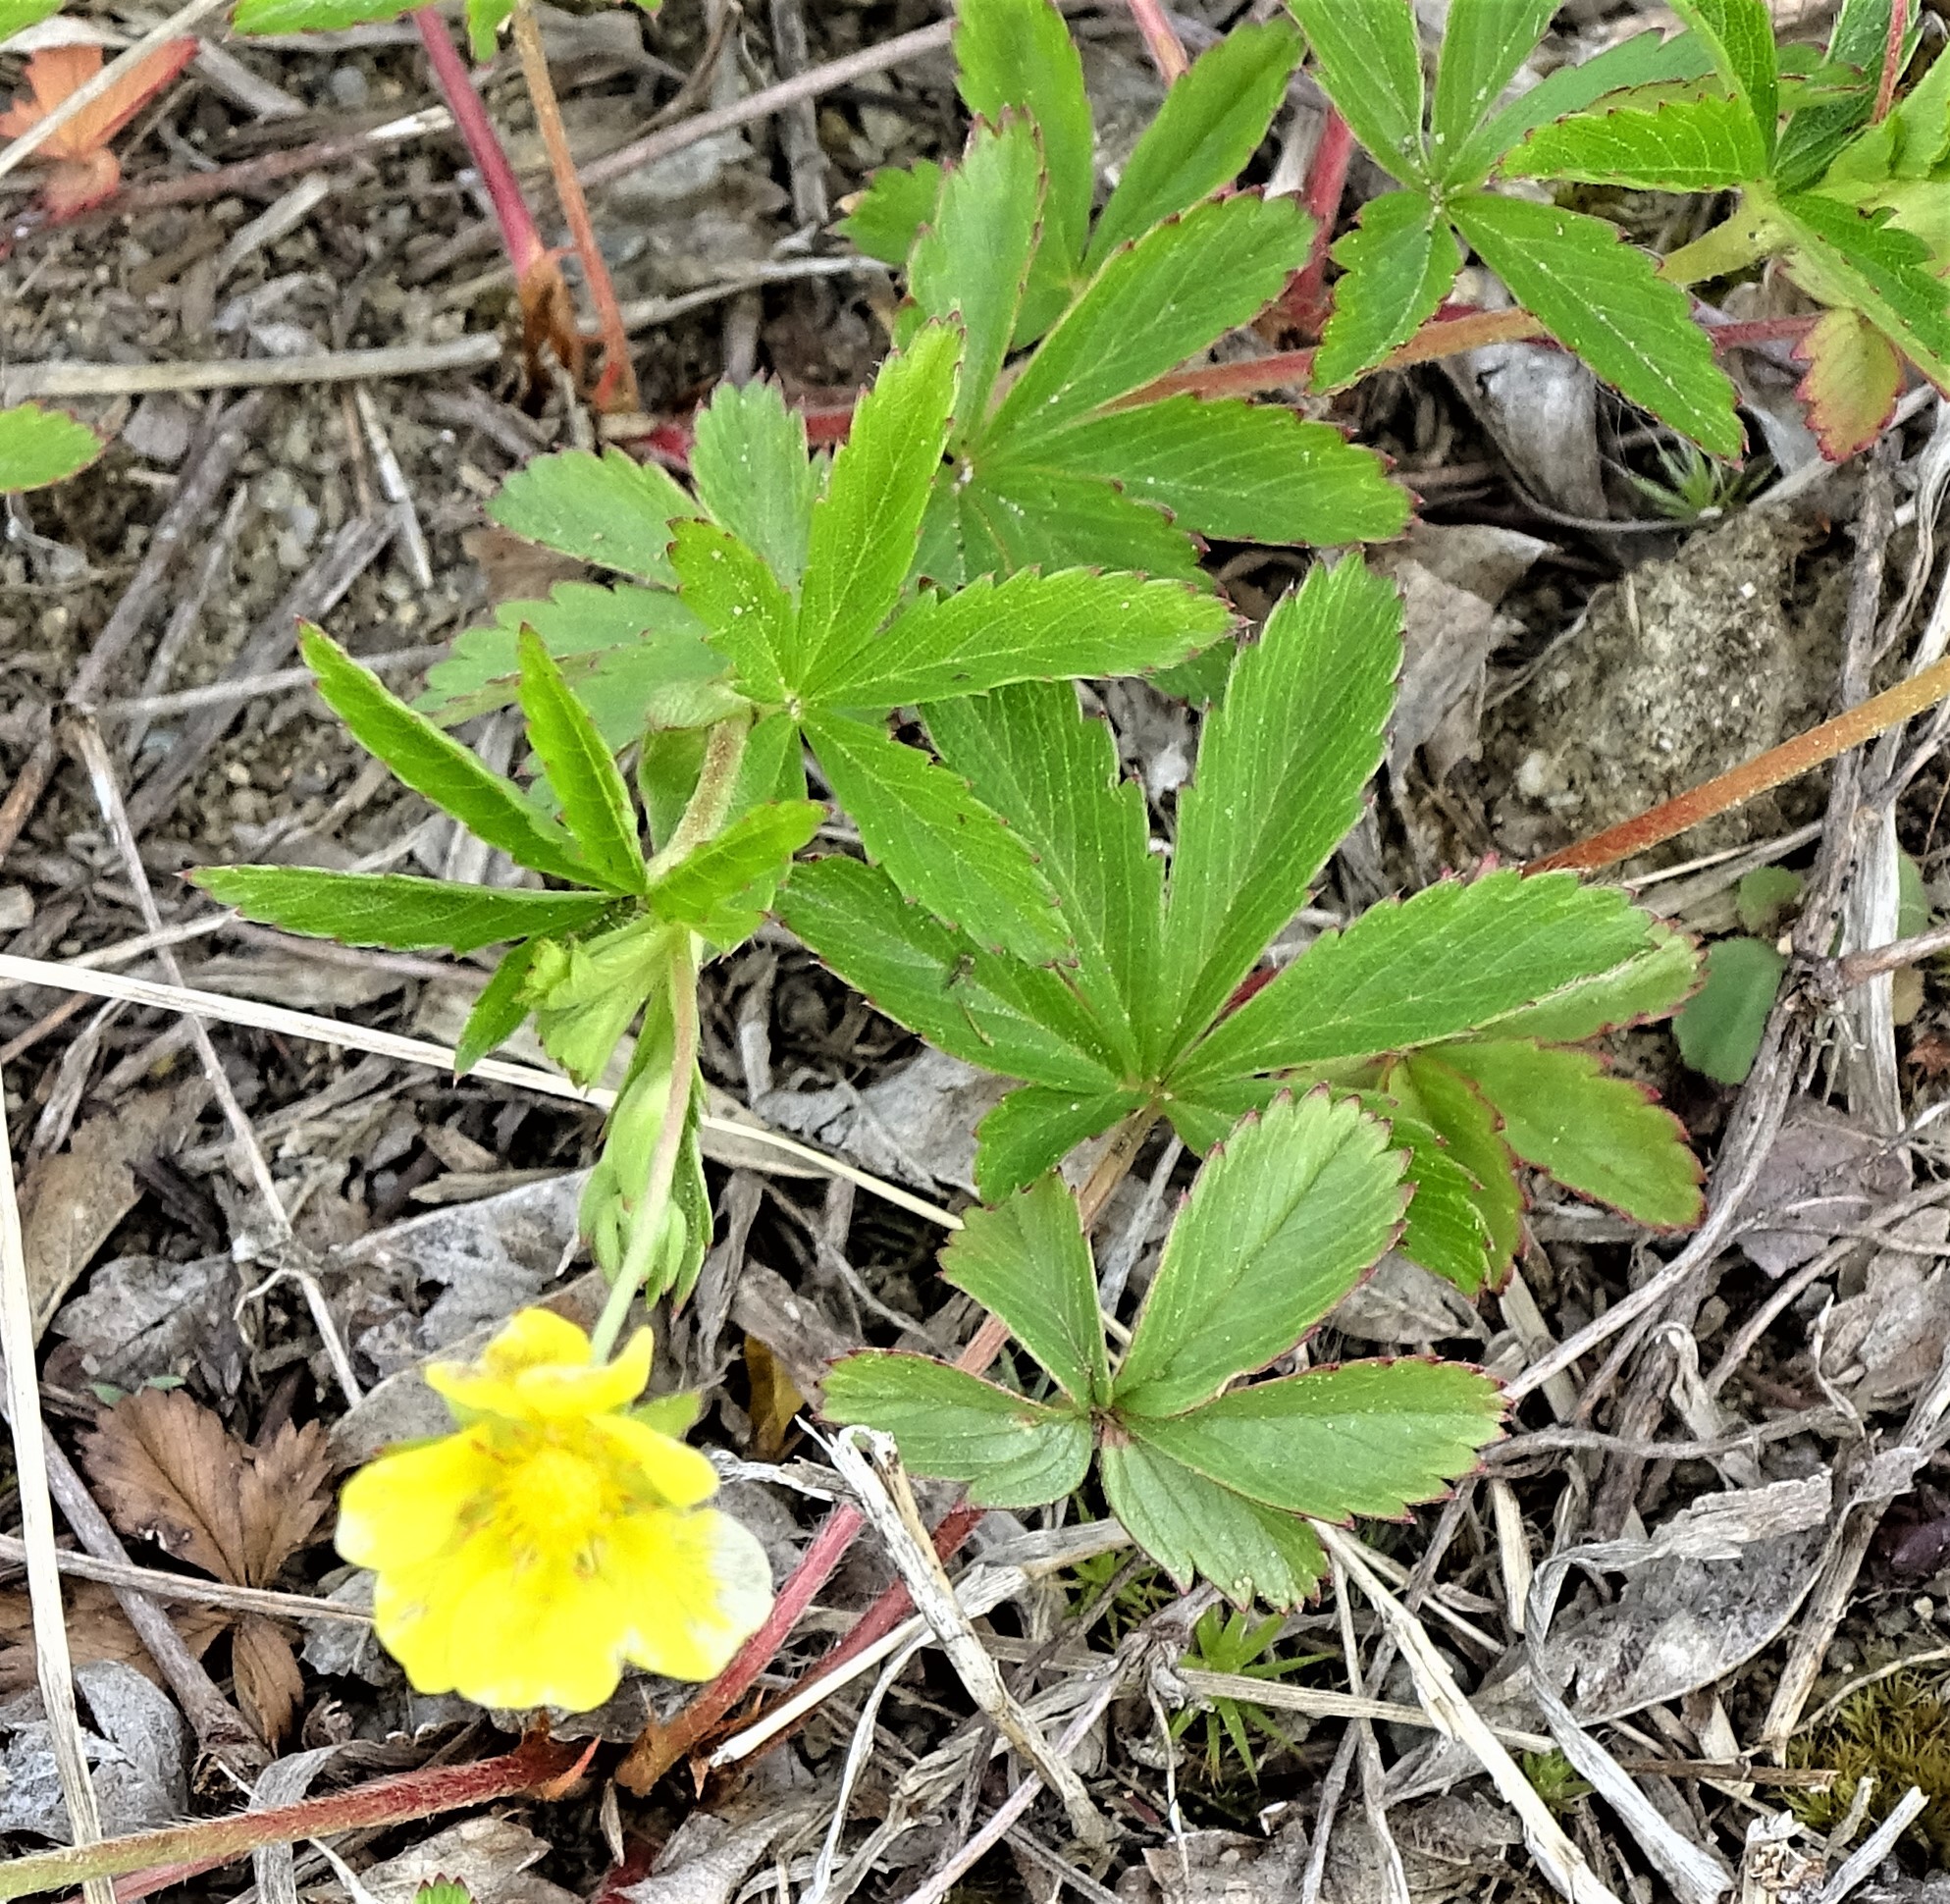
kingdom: Plantae
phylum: Tracheophyta
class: Magnoliopsida
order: Rosales
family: Rosaceae
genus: Potentilla
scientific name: Potentilla simplex
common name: Old field cinquefoil
